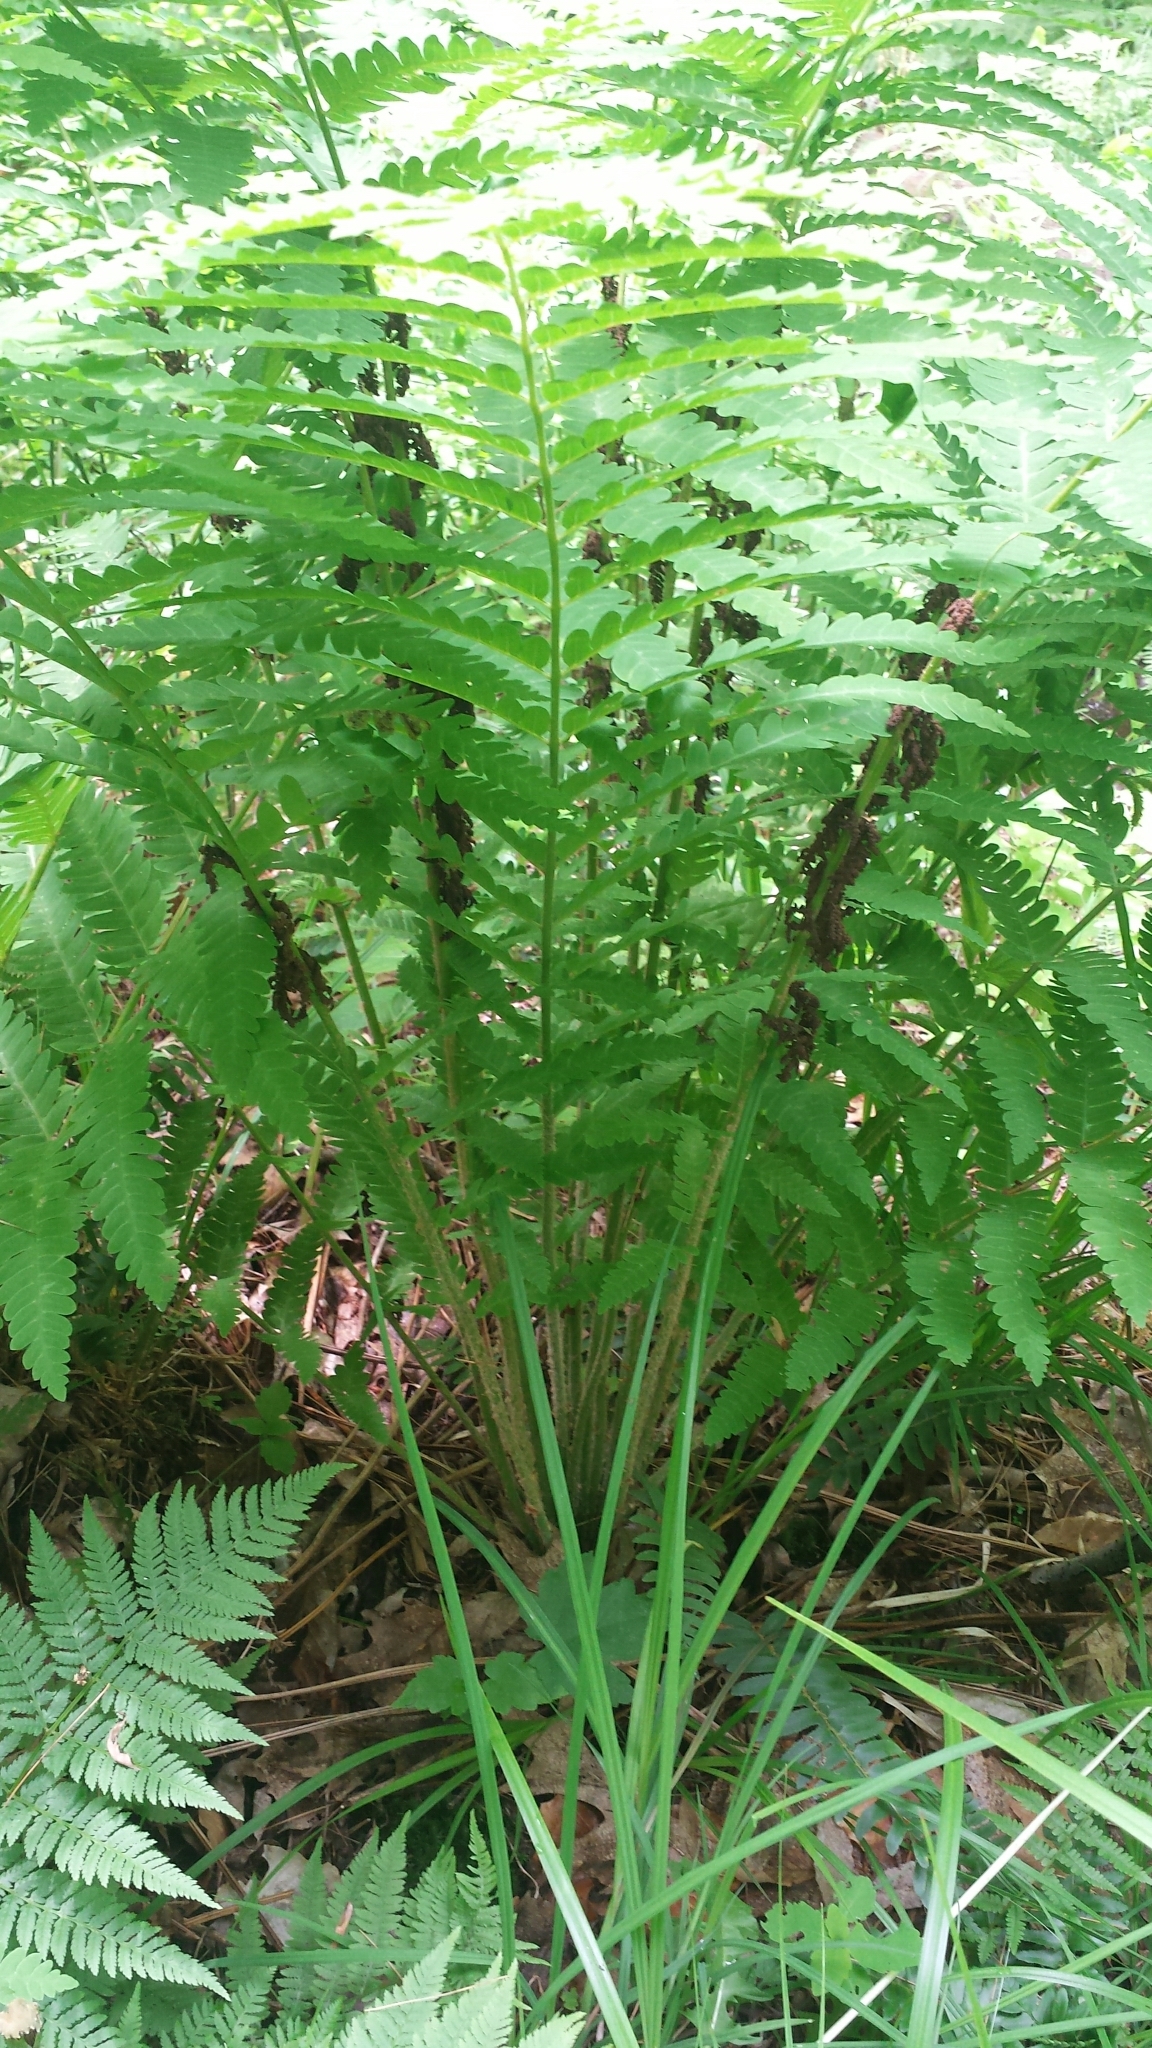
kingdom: Plantae
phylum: Tracheophyta
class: Polypodiopsida
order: Osmundales
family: Osmundaceae
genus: Claytosmunda
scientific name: Claytosmunda claytoniana
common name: Clayton's fern
